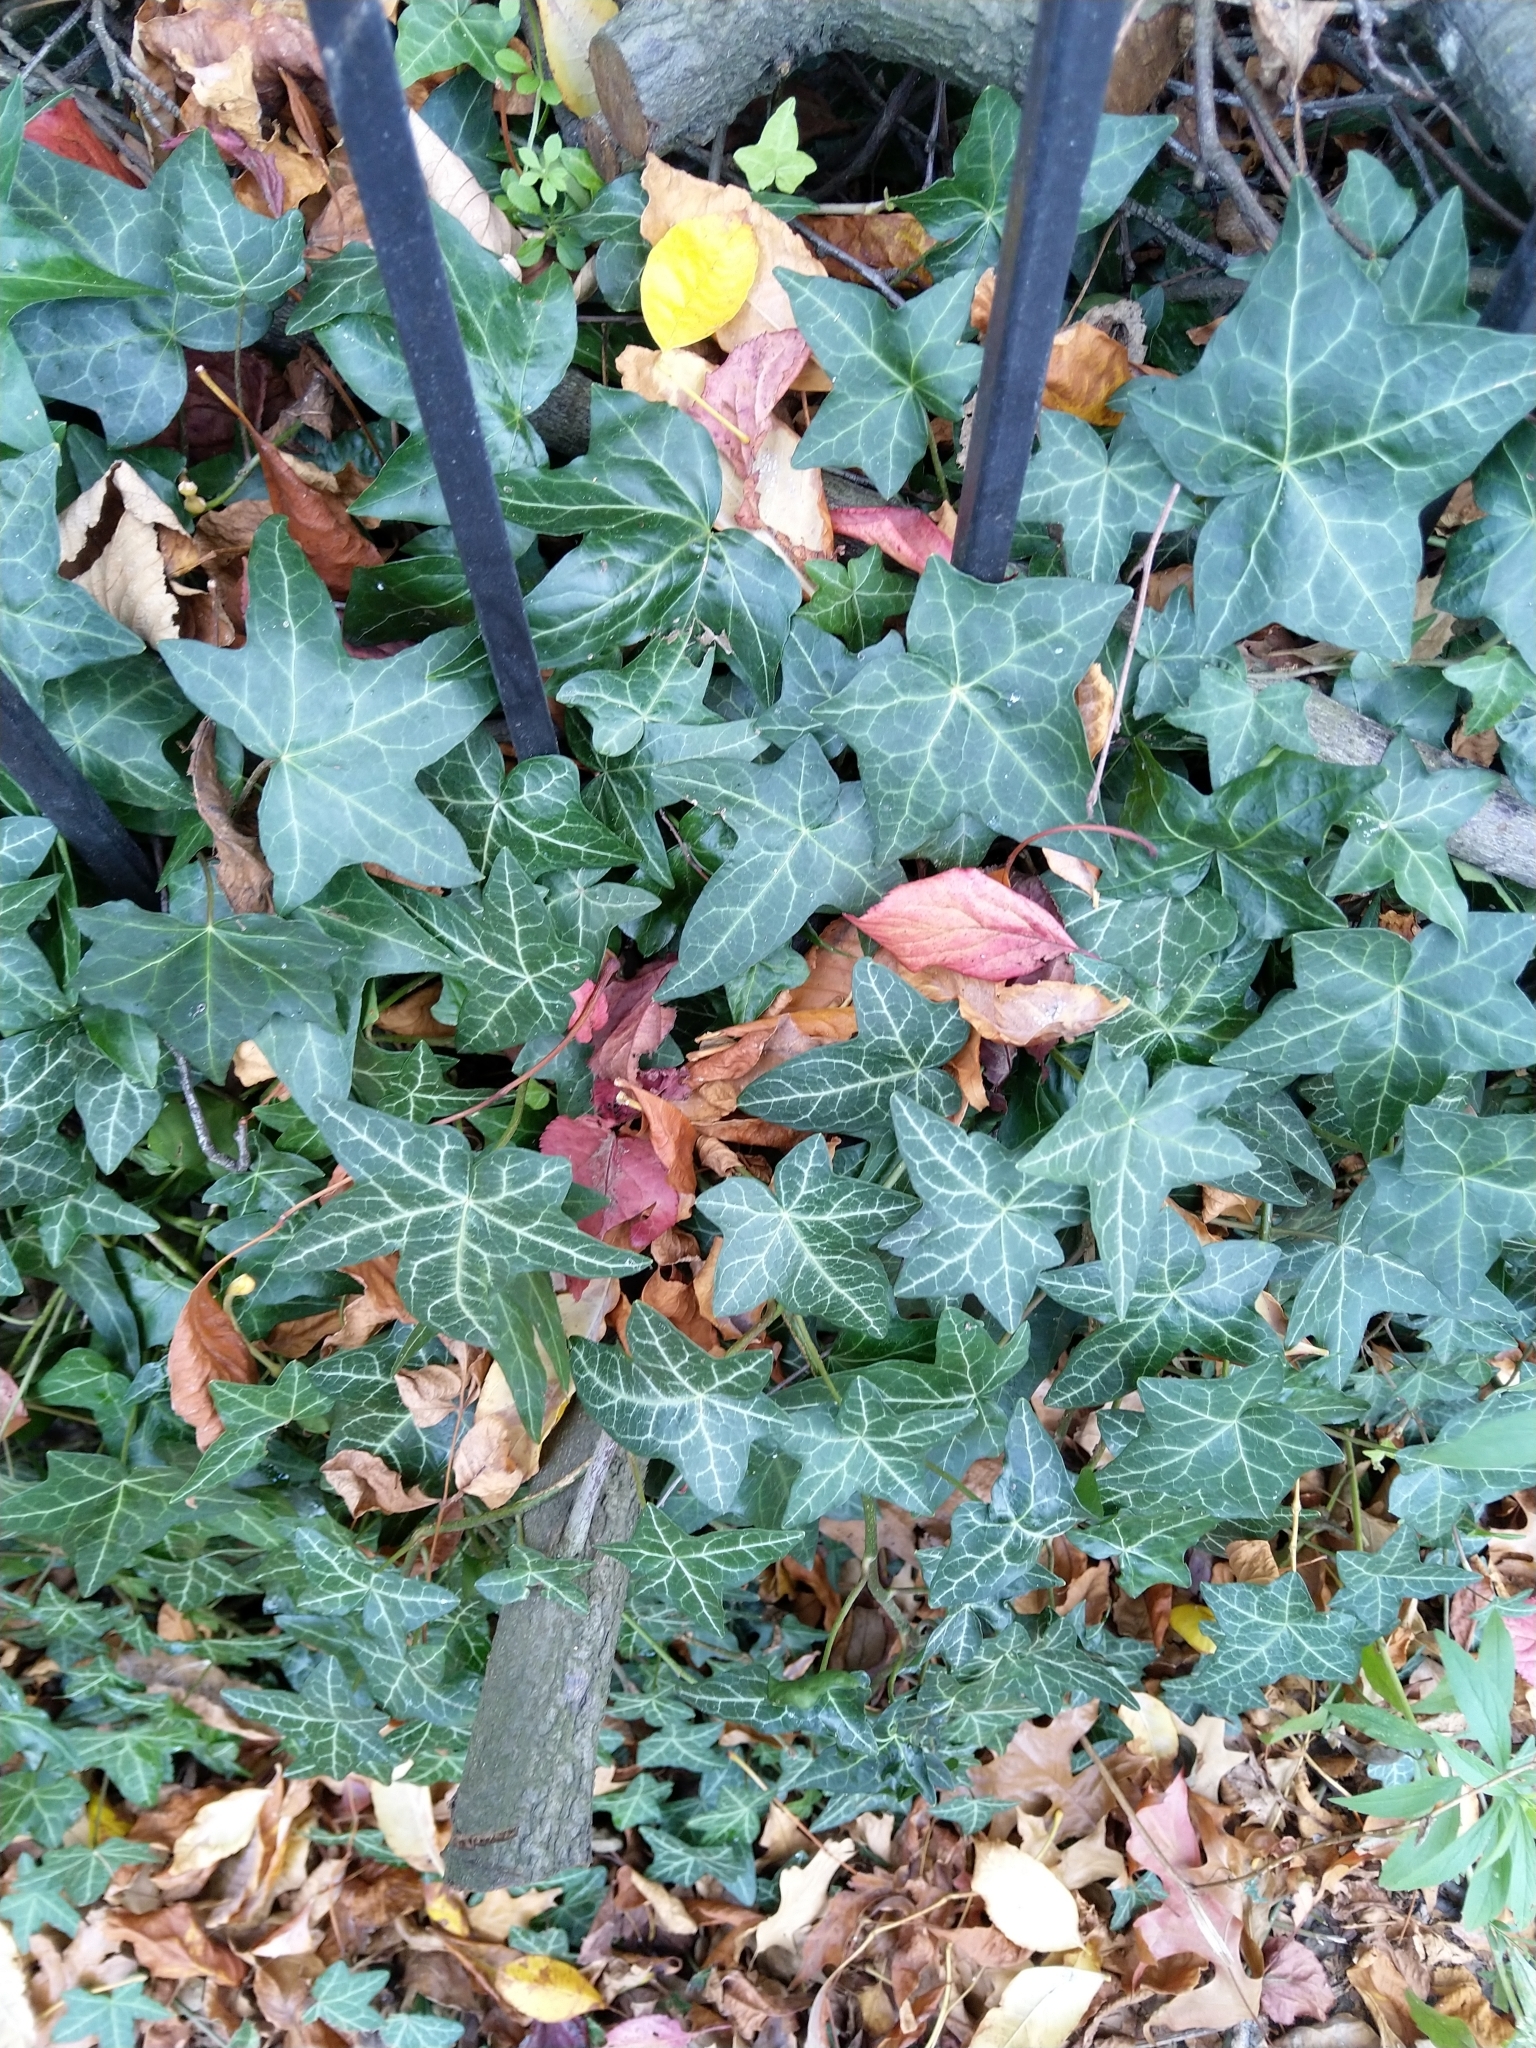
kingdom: Plantae
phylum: Tracheophyta
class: Magnoliopsida
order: Apiales
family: Araliaceae
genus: Hedera
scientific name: Hedera helix
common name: Ivy
